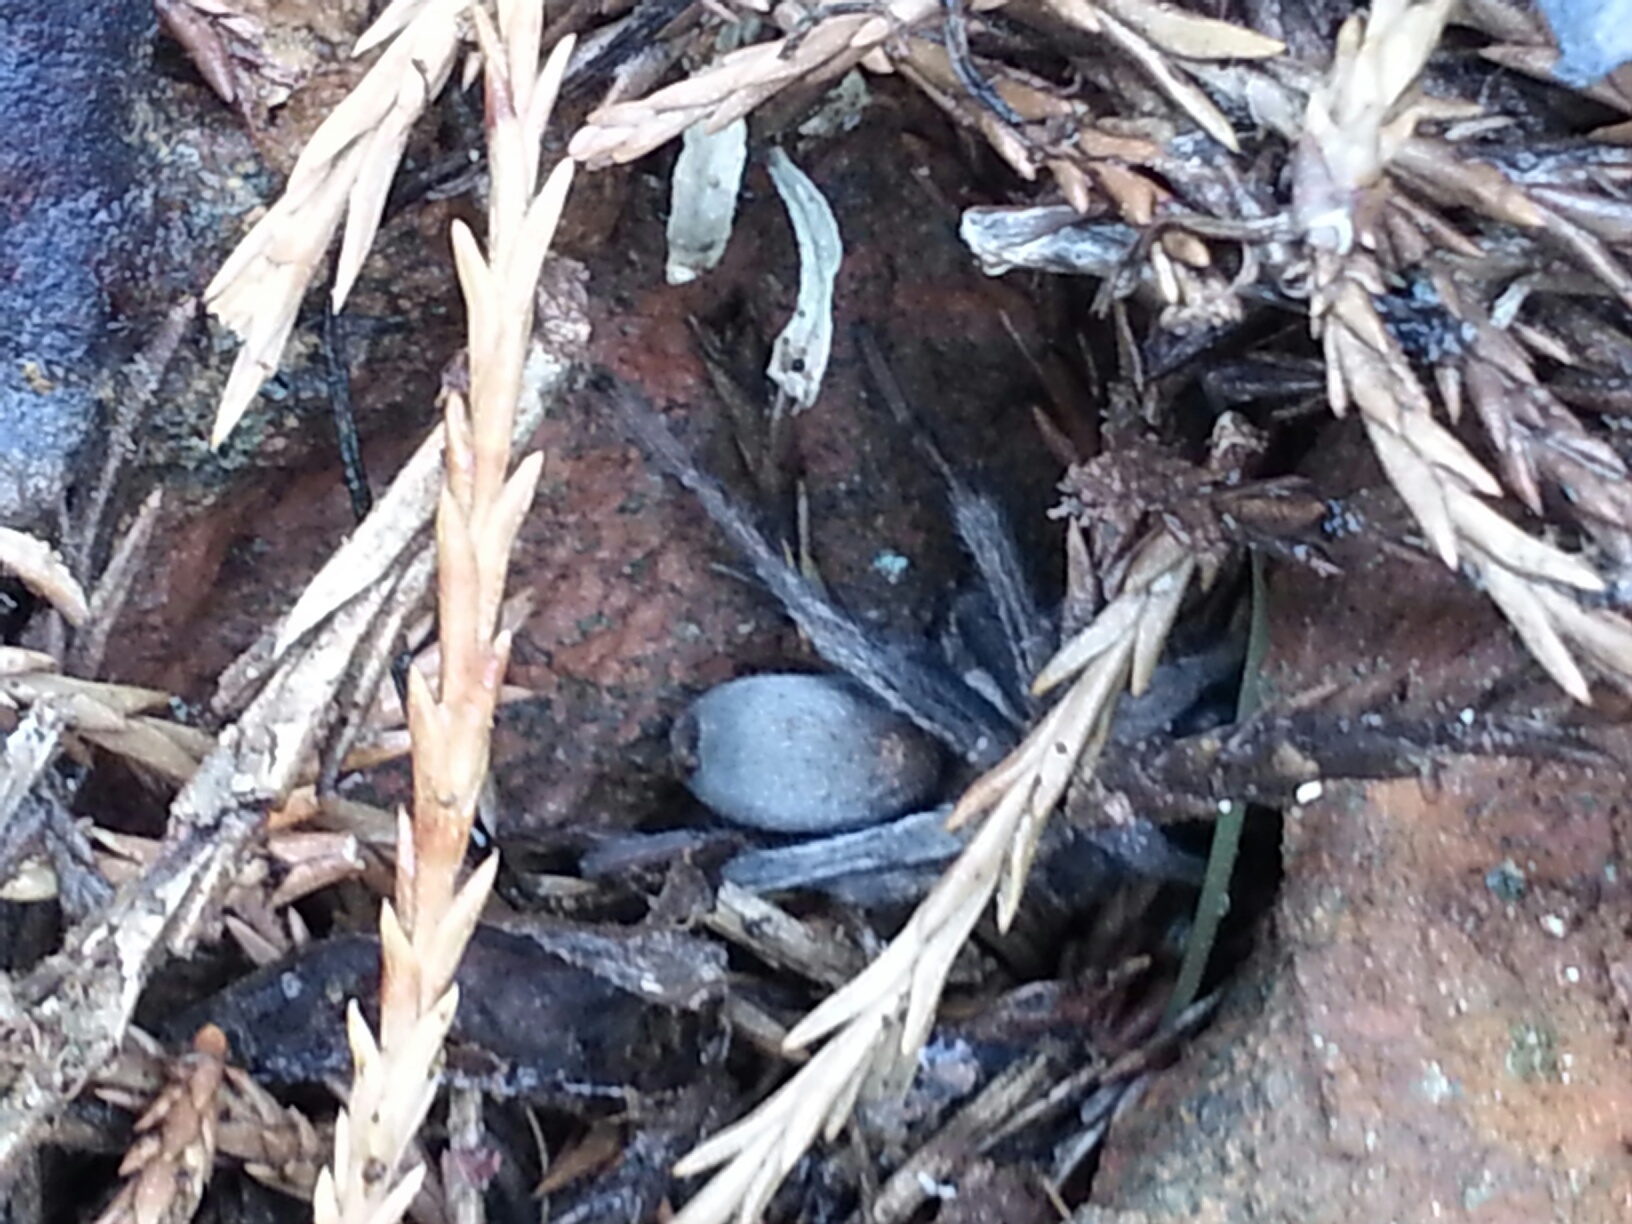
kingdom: Animalia
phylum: Arthropoda
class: Arachnida
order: Araneae
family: Nemesiidae
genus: Calisoga
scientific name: Calisoga longitarsis
